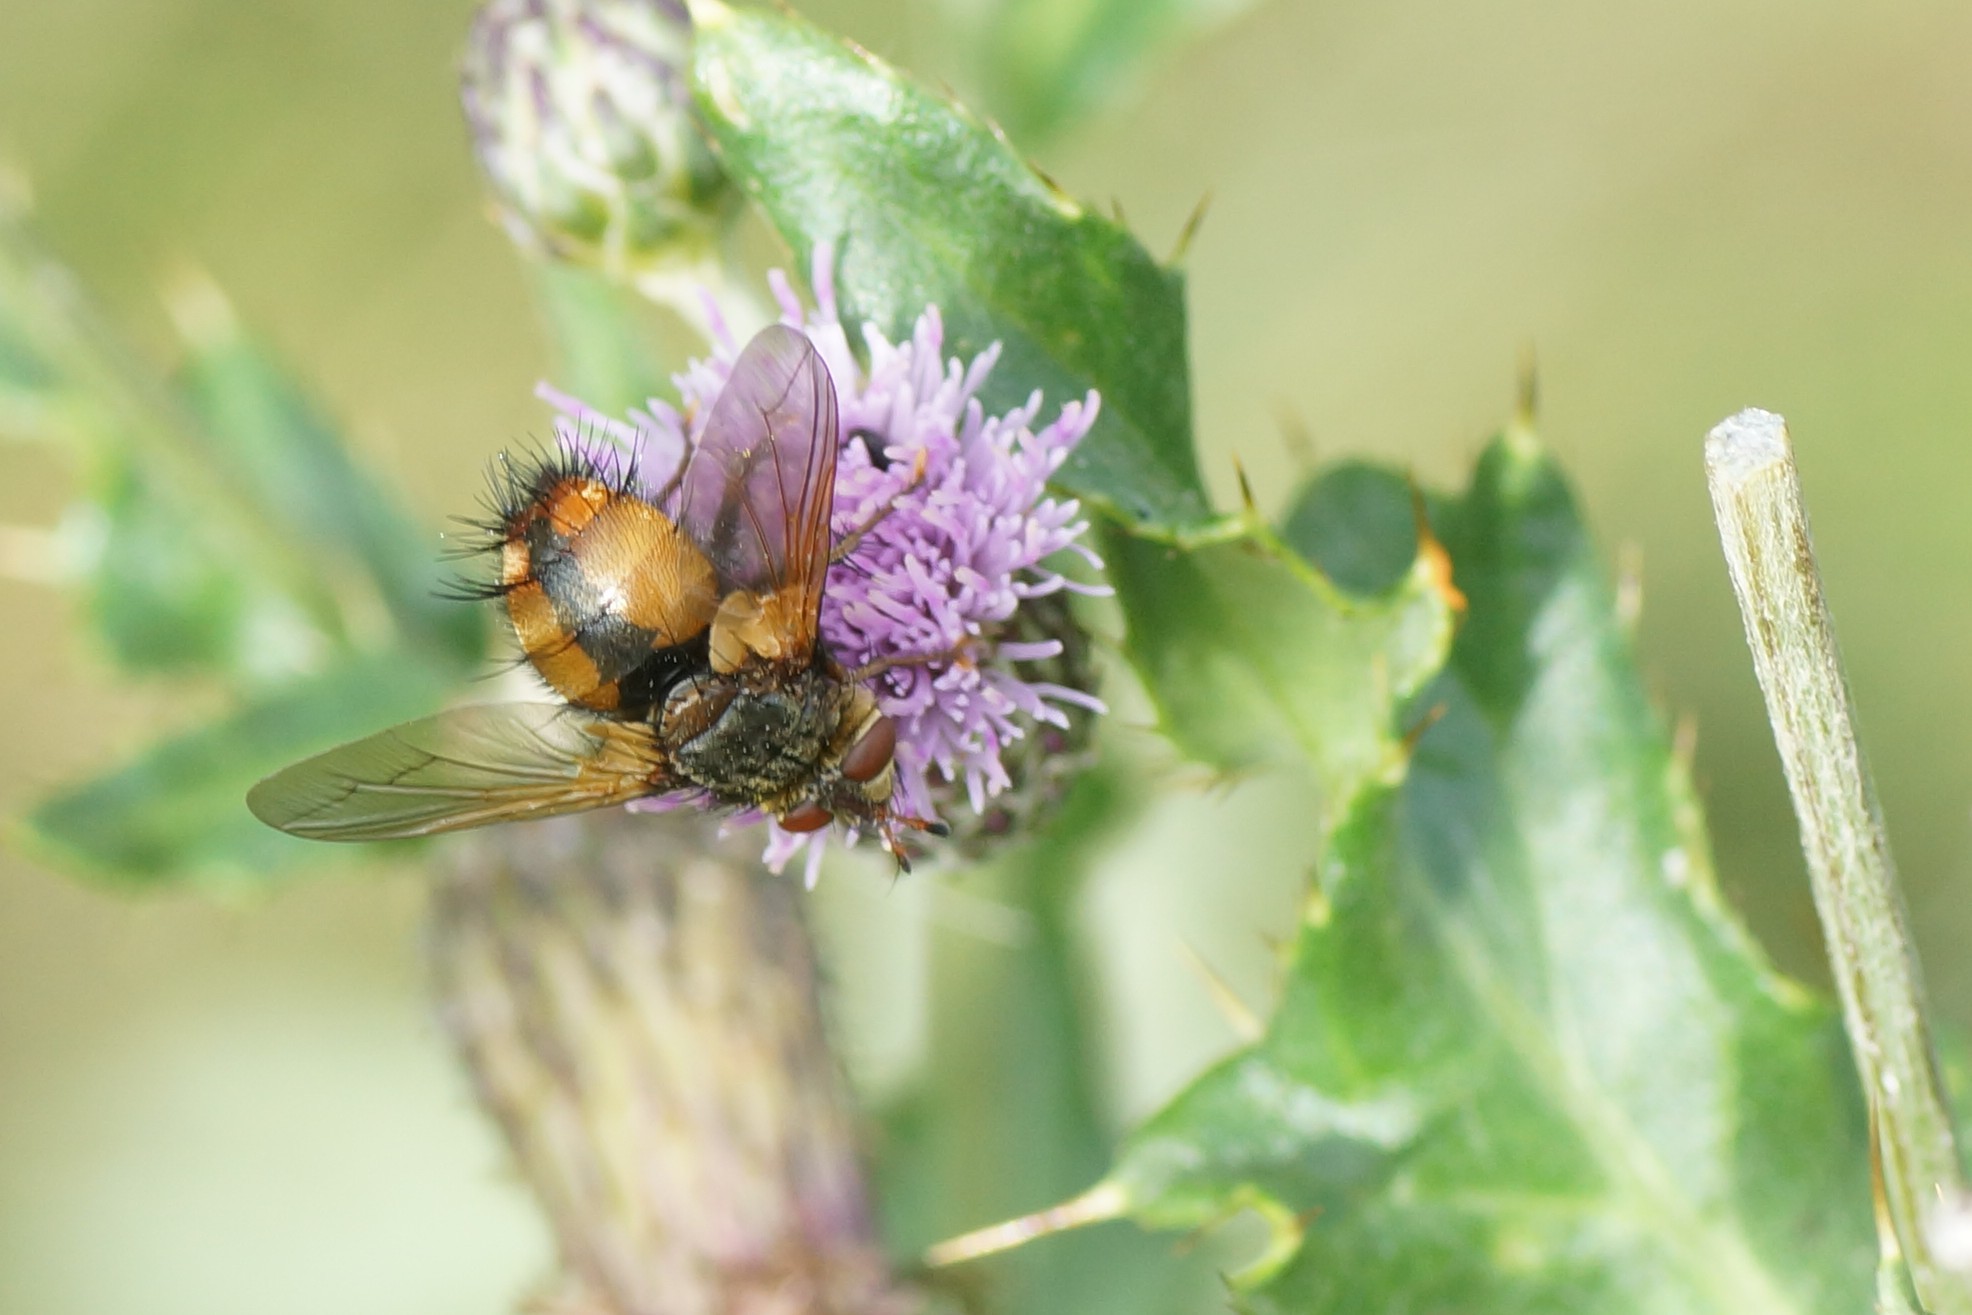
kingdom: Animalia
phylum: Arthropoda
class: Insecta
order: Diptera
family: Tachinidae
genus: Tachina
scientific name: Tachina fera
